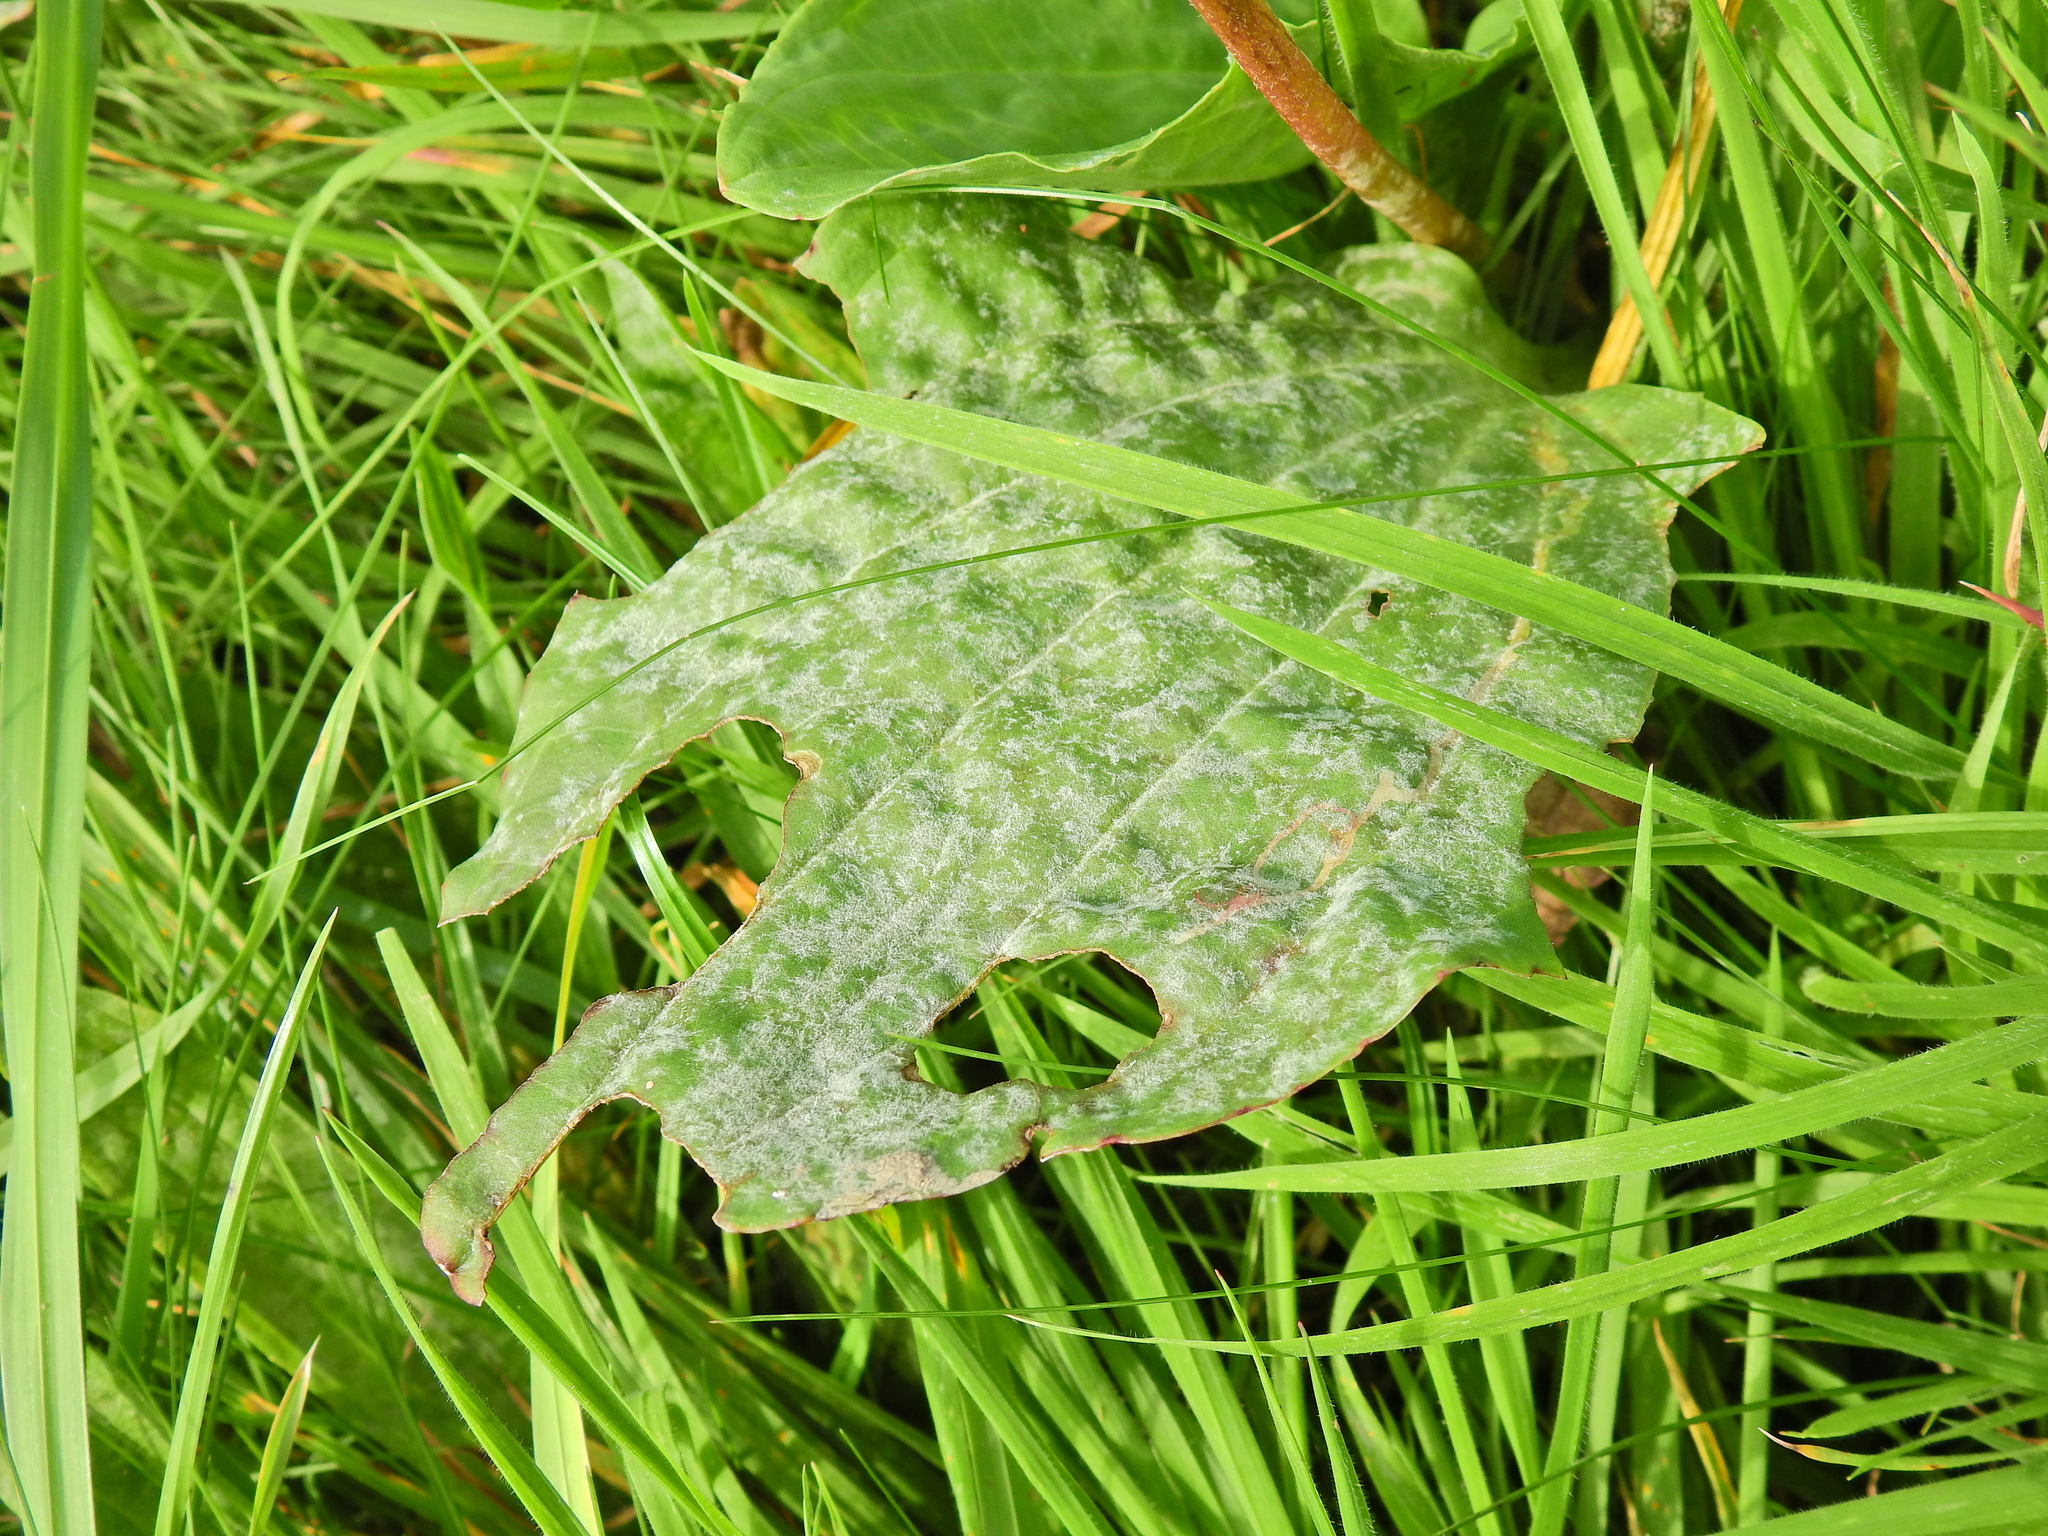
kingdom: Fungi
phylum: Ascomycota
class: Leotiomycetes
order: Helotiales
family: Erysiphaceae
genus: Golovinomyces
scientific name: Golovinomyces sordidus
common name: Plantain mildew
